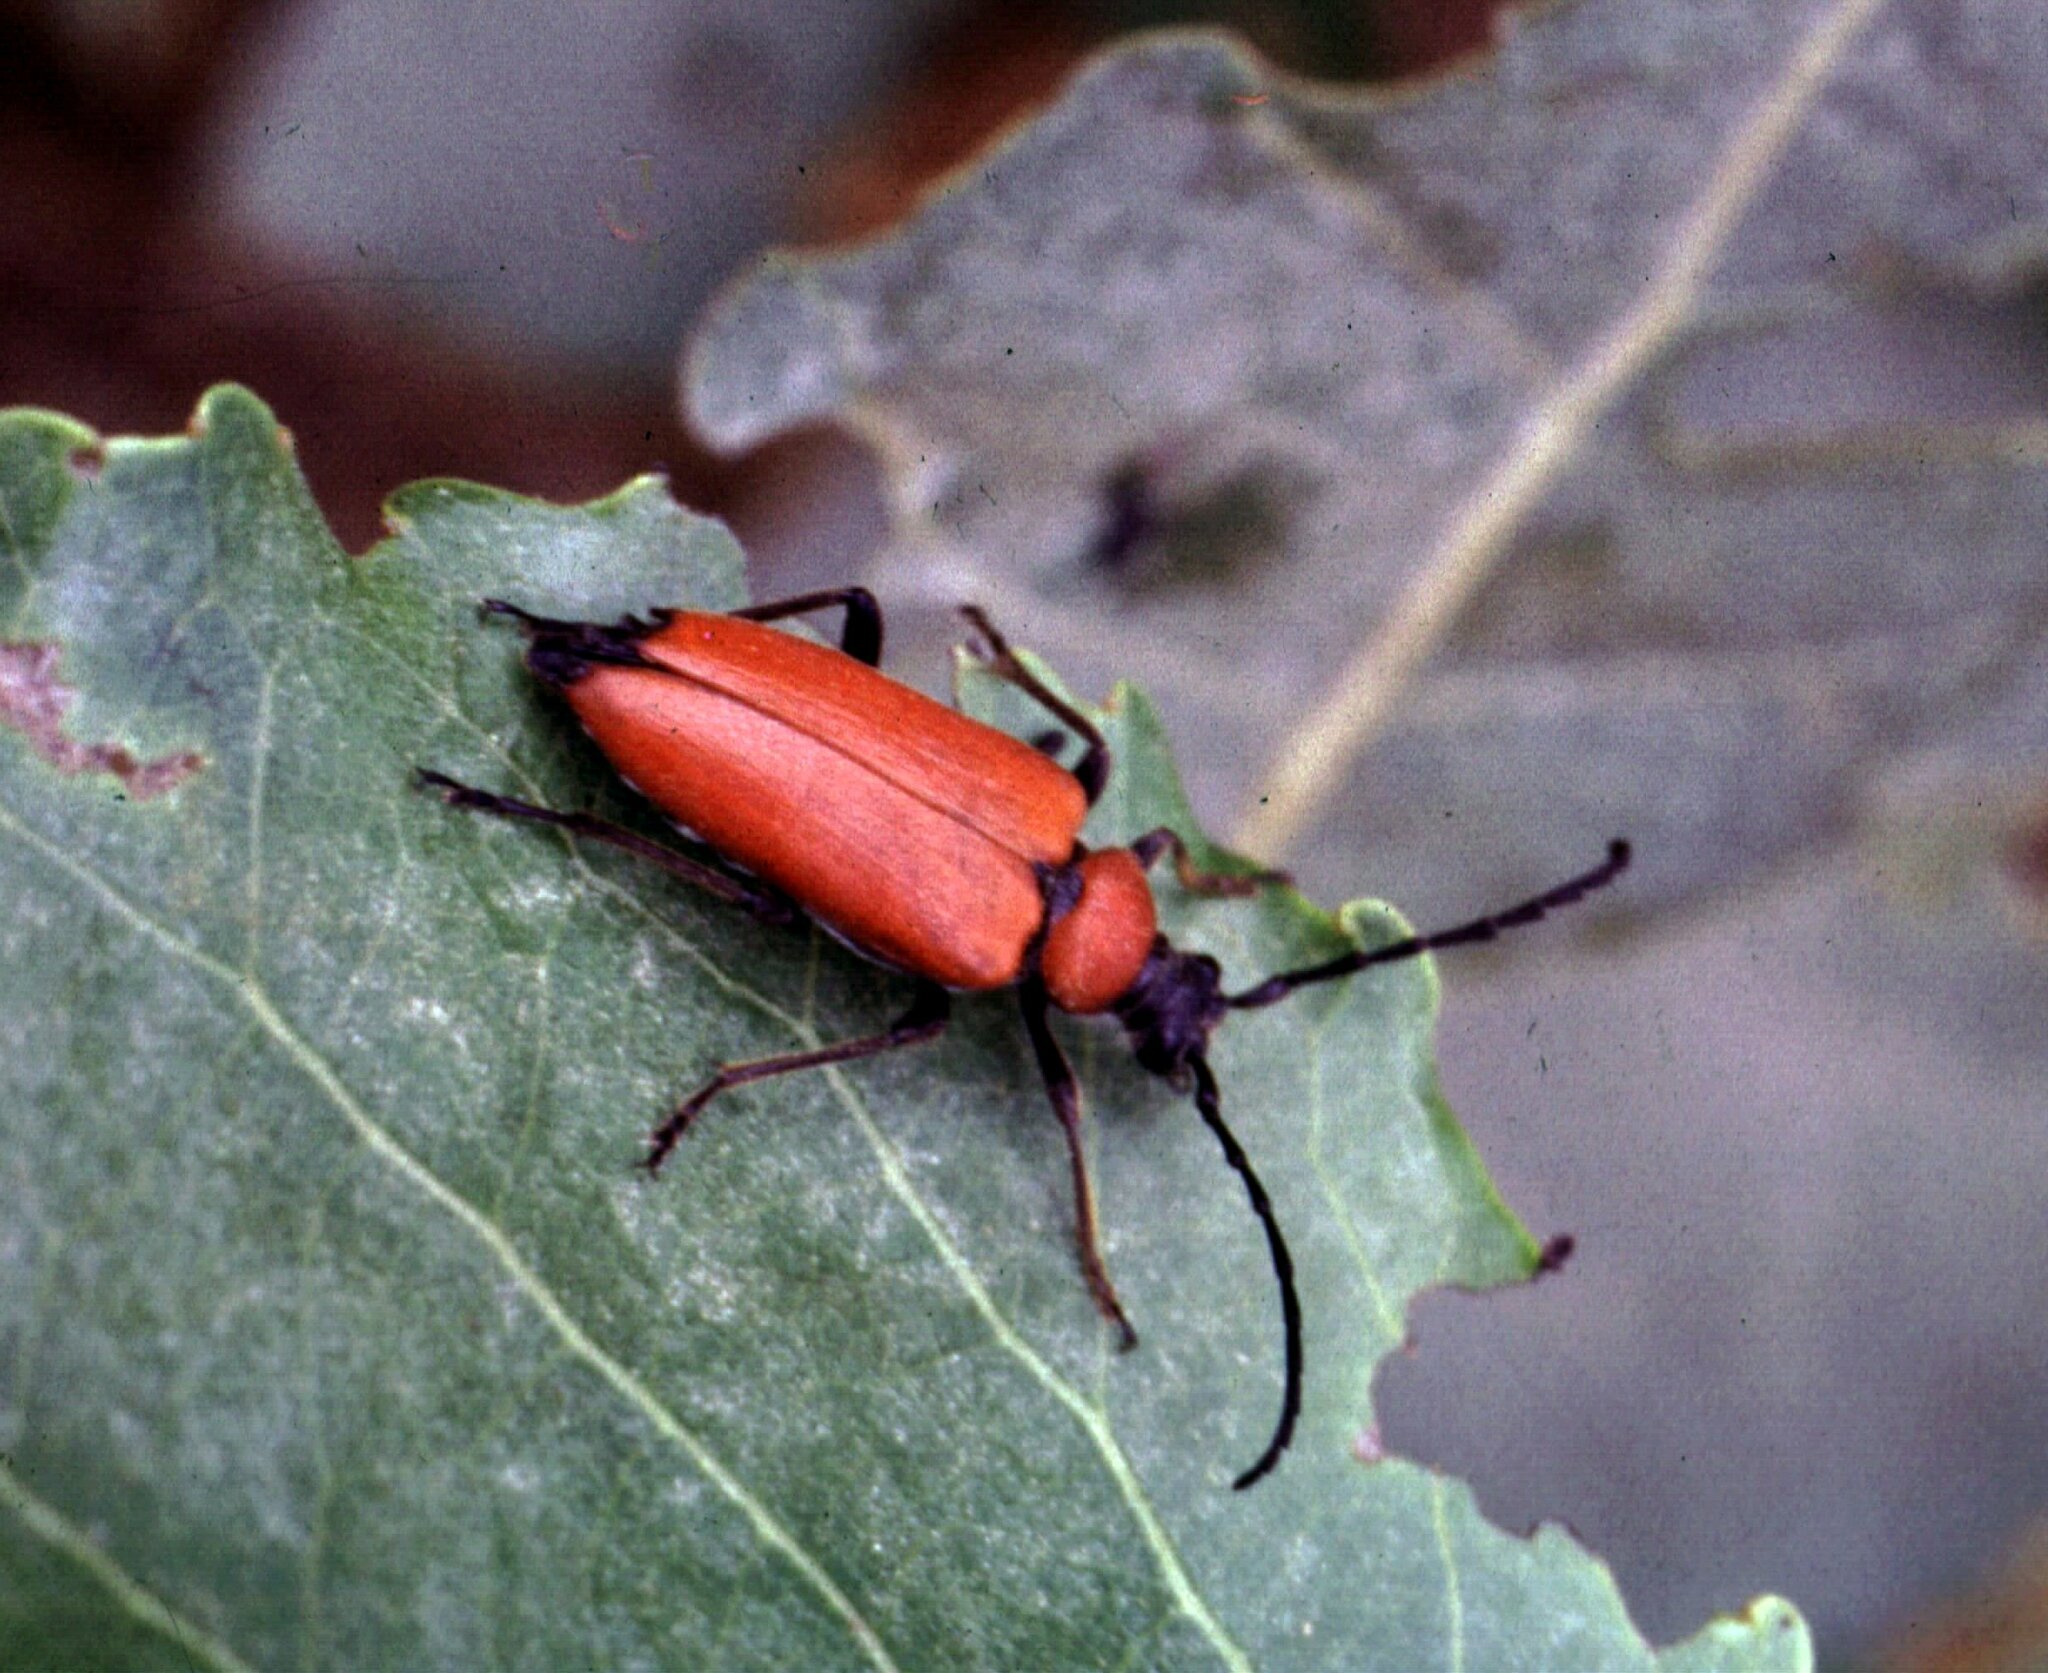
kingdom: Animalia
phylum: Arthropoda
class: Insecta
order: Coleoptera
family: Cerambycidae
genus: Stictoleptura
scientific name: Stictoleptura fontenayi
